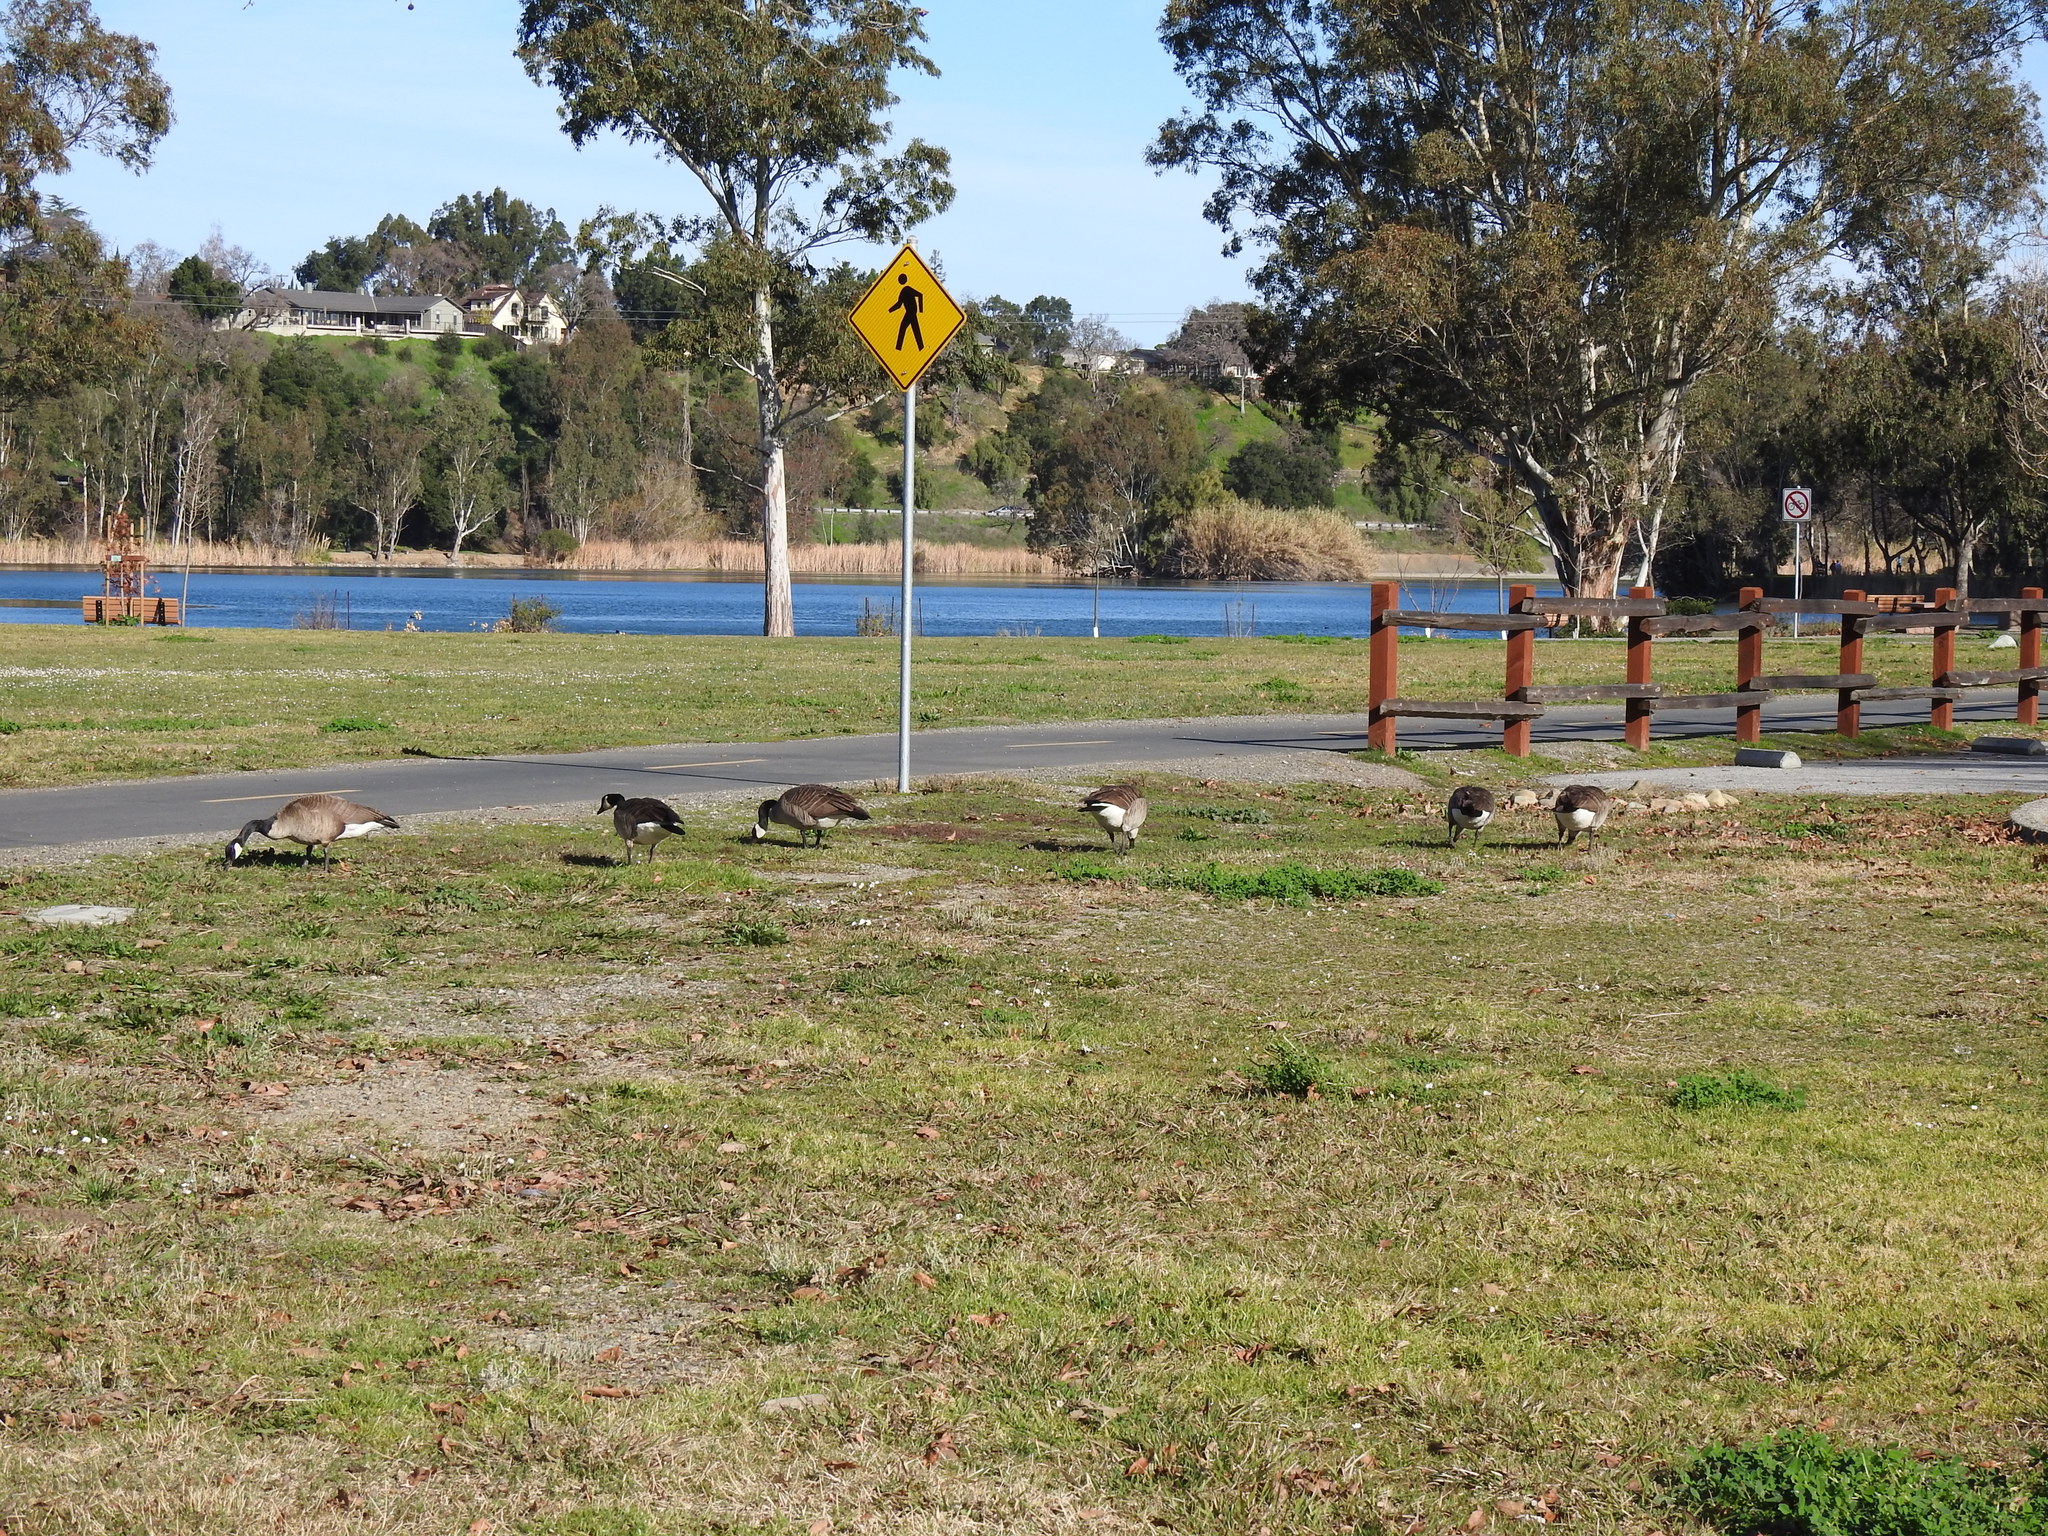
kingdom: Animalia
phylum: Chordata
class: Aves
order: Anseriformes
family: Anatidae
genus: Branta
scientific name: Branta canadensis
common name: Canada goose
